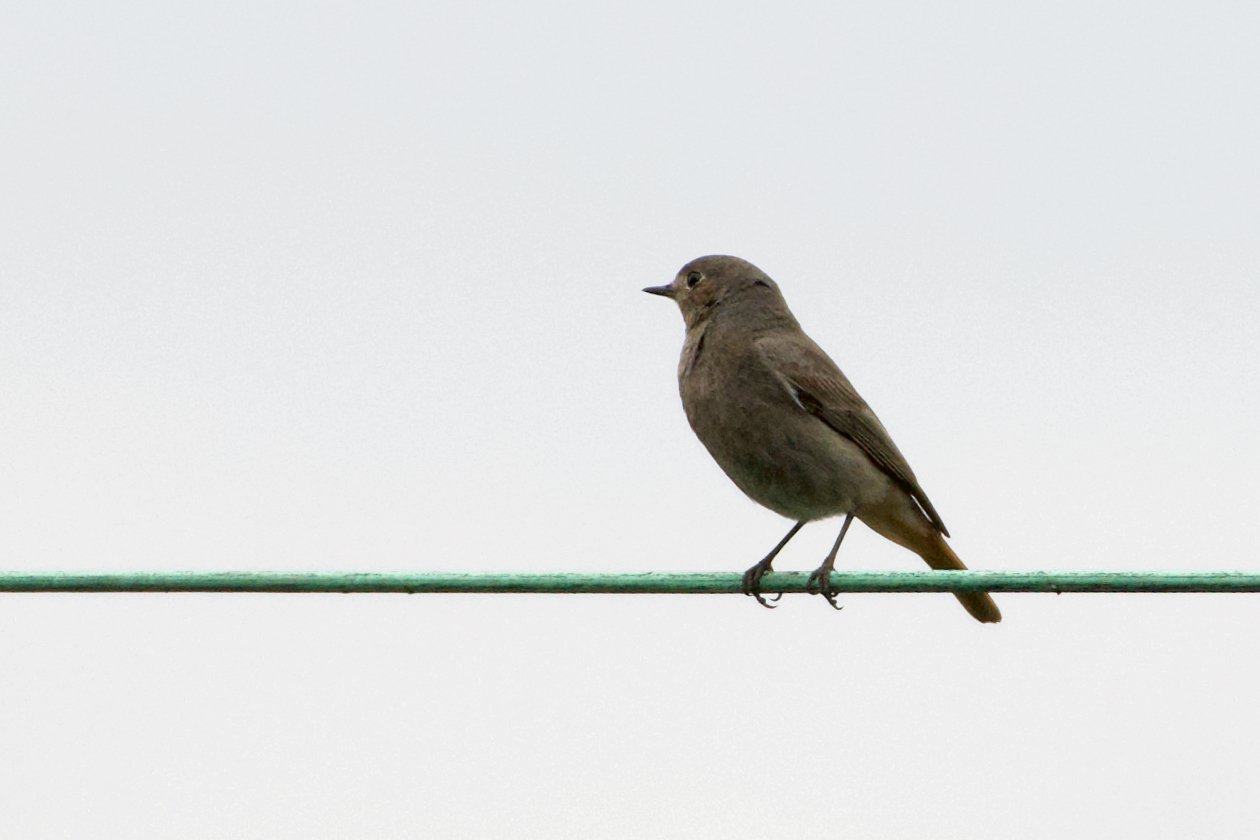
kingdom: Animalia
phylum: Chordata
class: Aves
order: Passeriformes
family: Muscicapidae
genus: Phoenicurus
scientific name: Phoenicurus ochruros
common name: Black redstart
